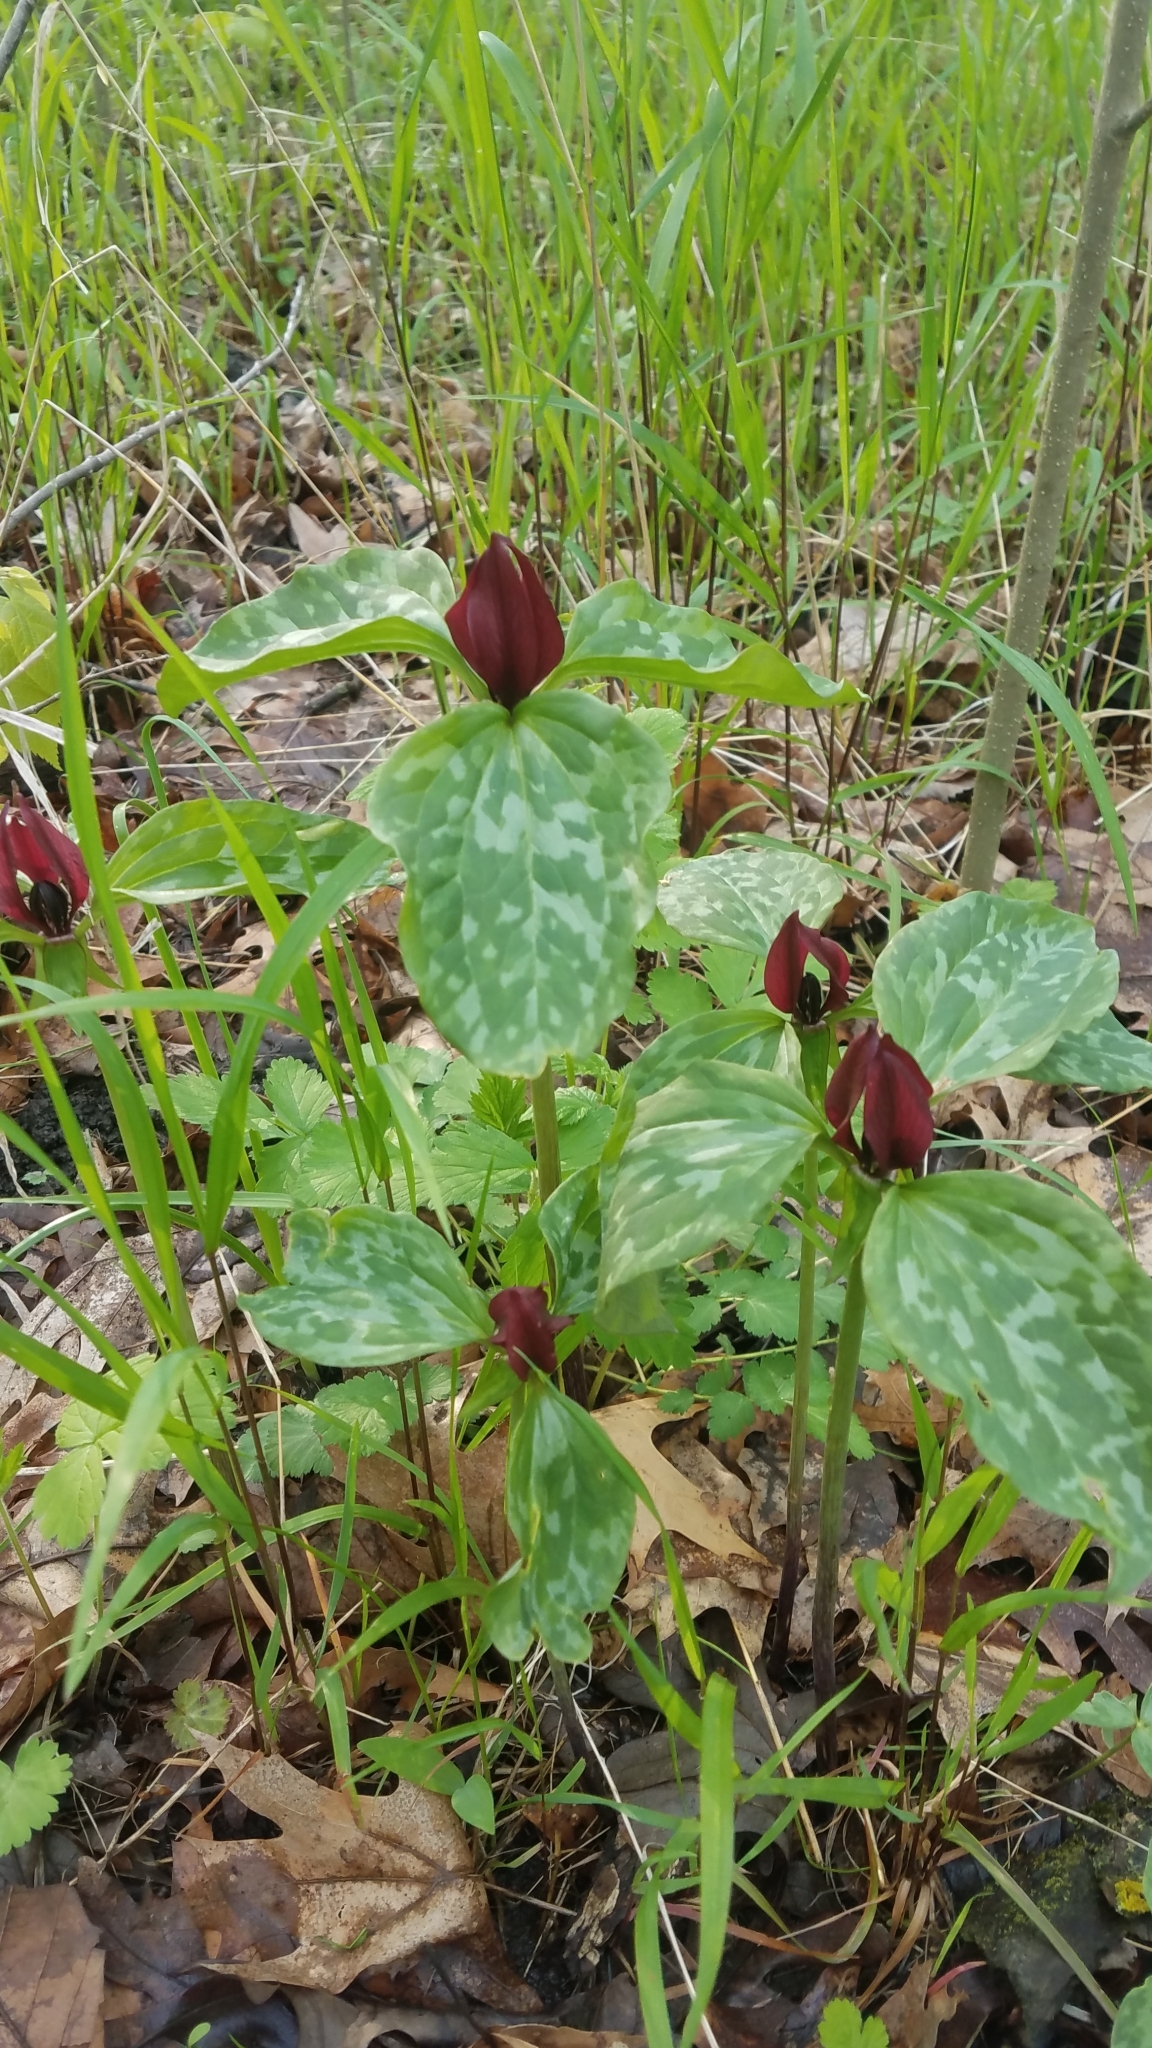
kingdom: Plantae
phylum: Tracheophyta
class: Liliopsida
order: Liliales
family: Melanthiaceae
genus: Trillium
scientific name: Trillium recurvatum
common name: Bloody butcher
